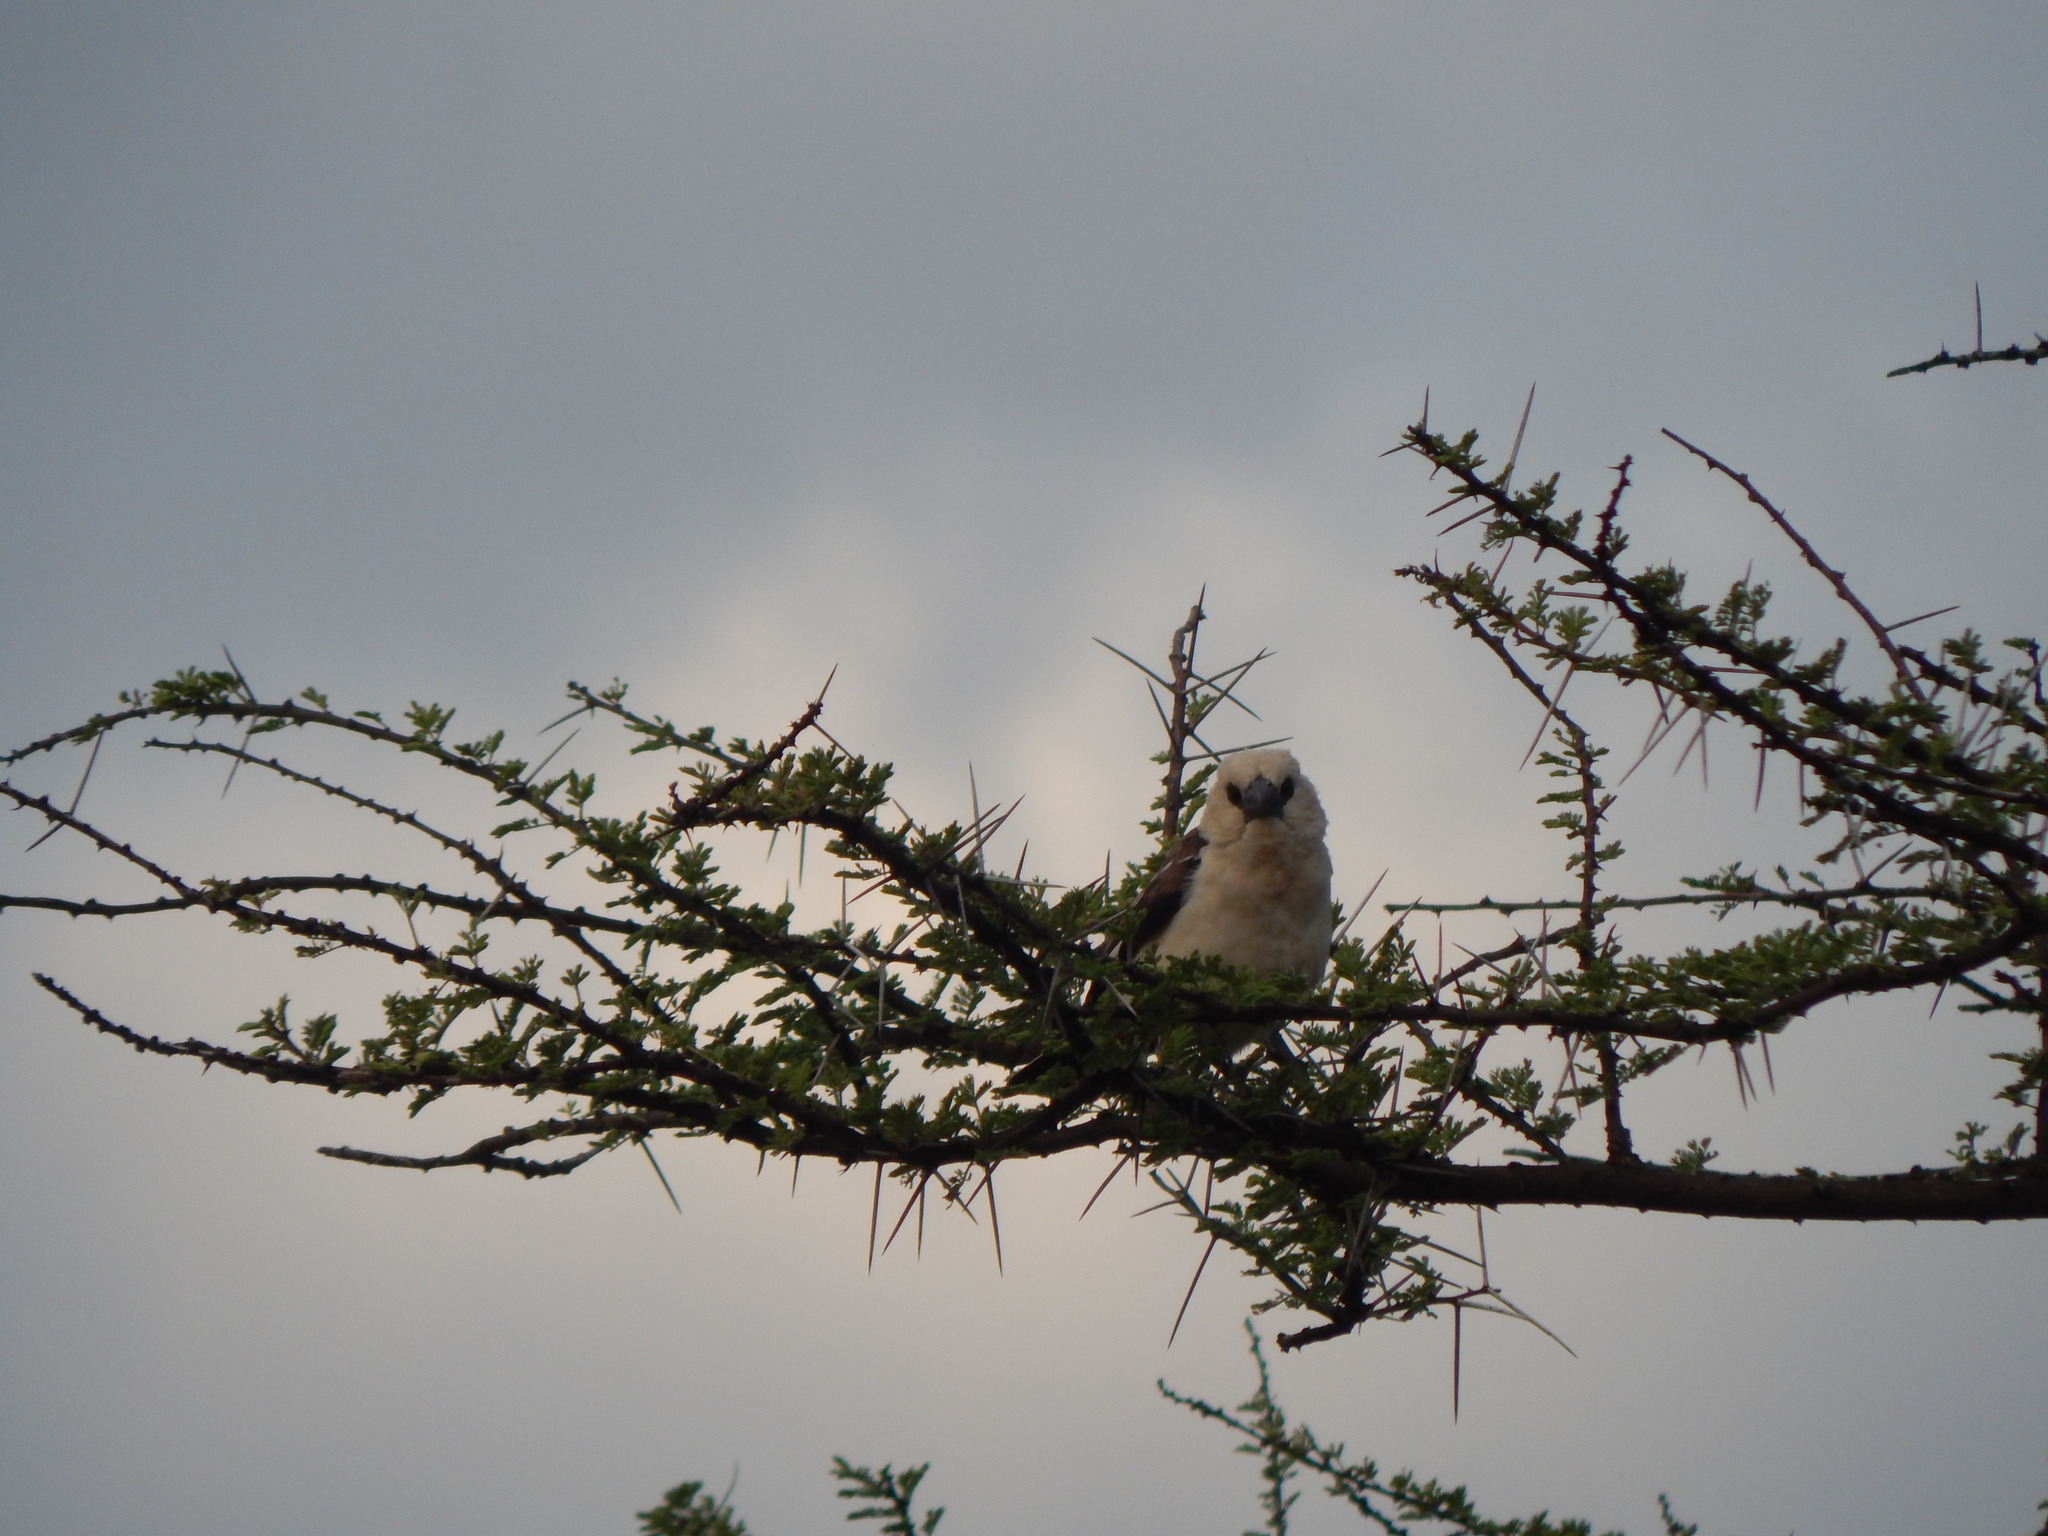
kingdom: Animalia
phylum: Chordata
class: Aves
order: Passeriformes
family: Ploceidae
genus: Dinemellia
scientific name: Dinemellia dinemelli
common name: White-headed buffalo weaver
